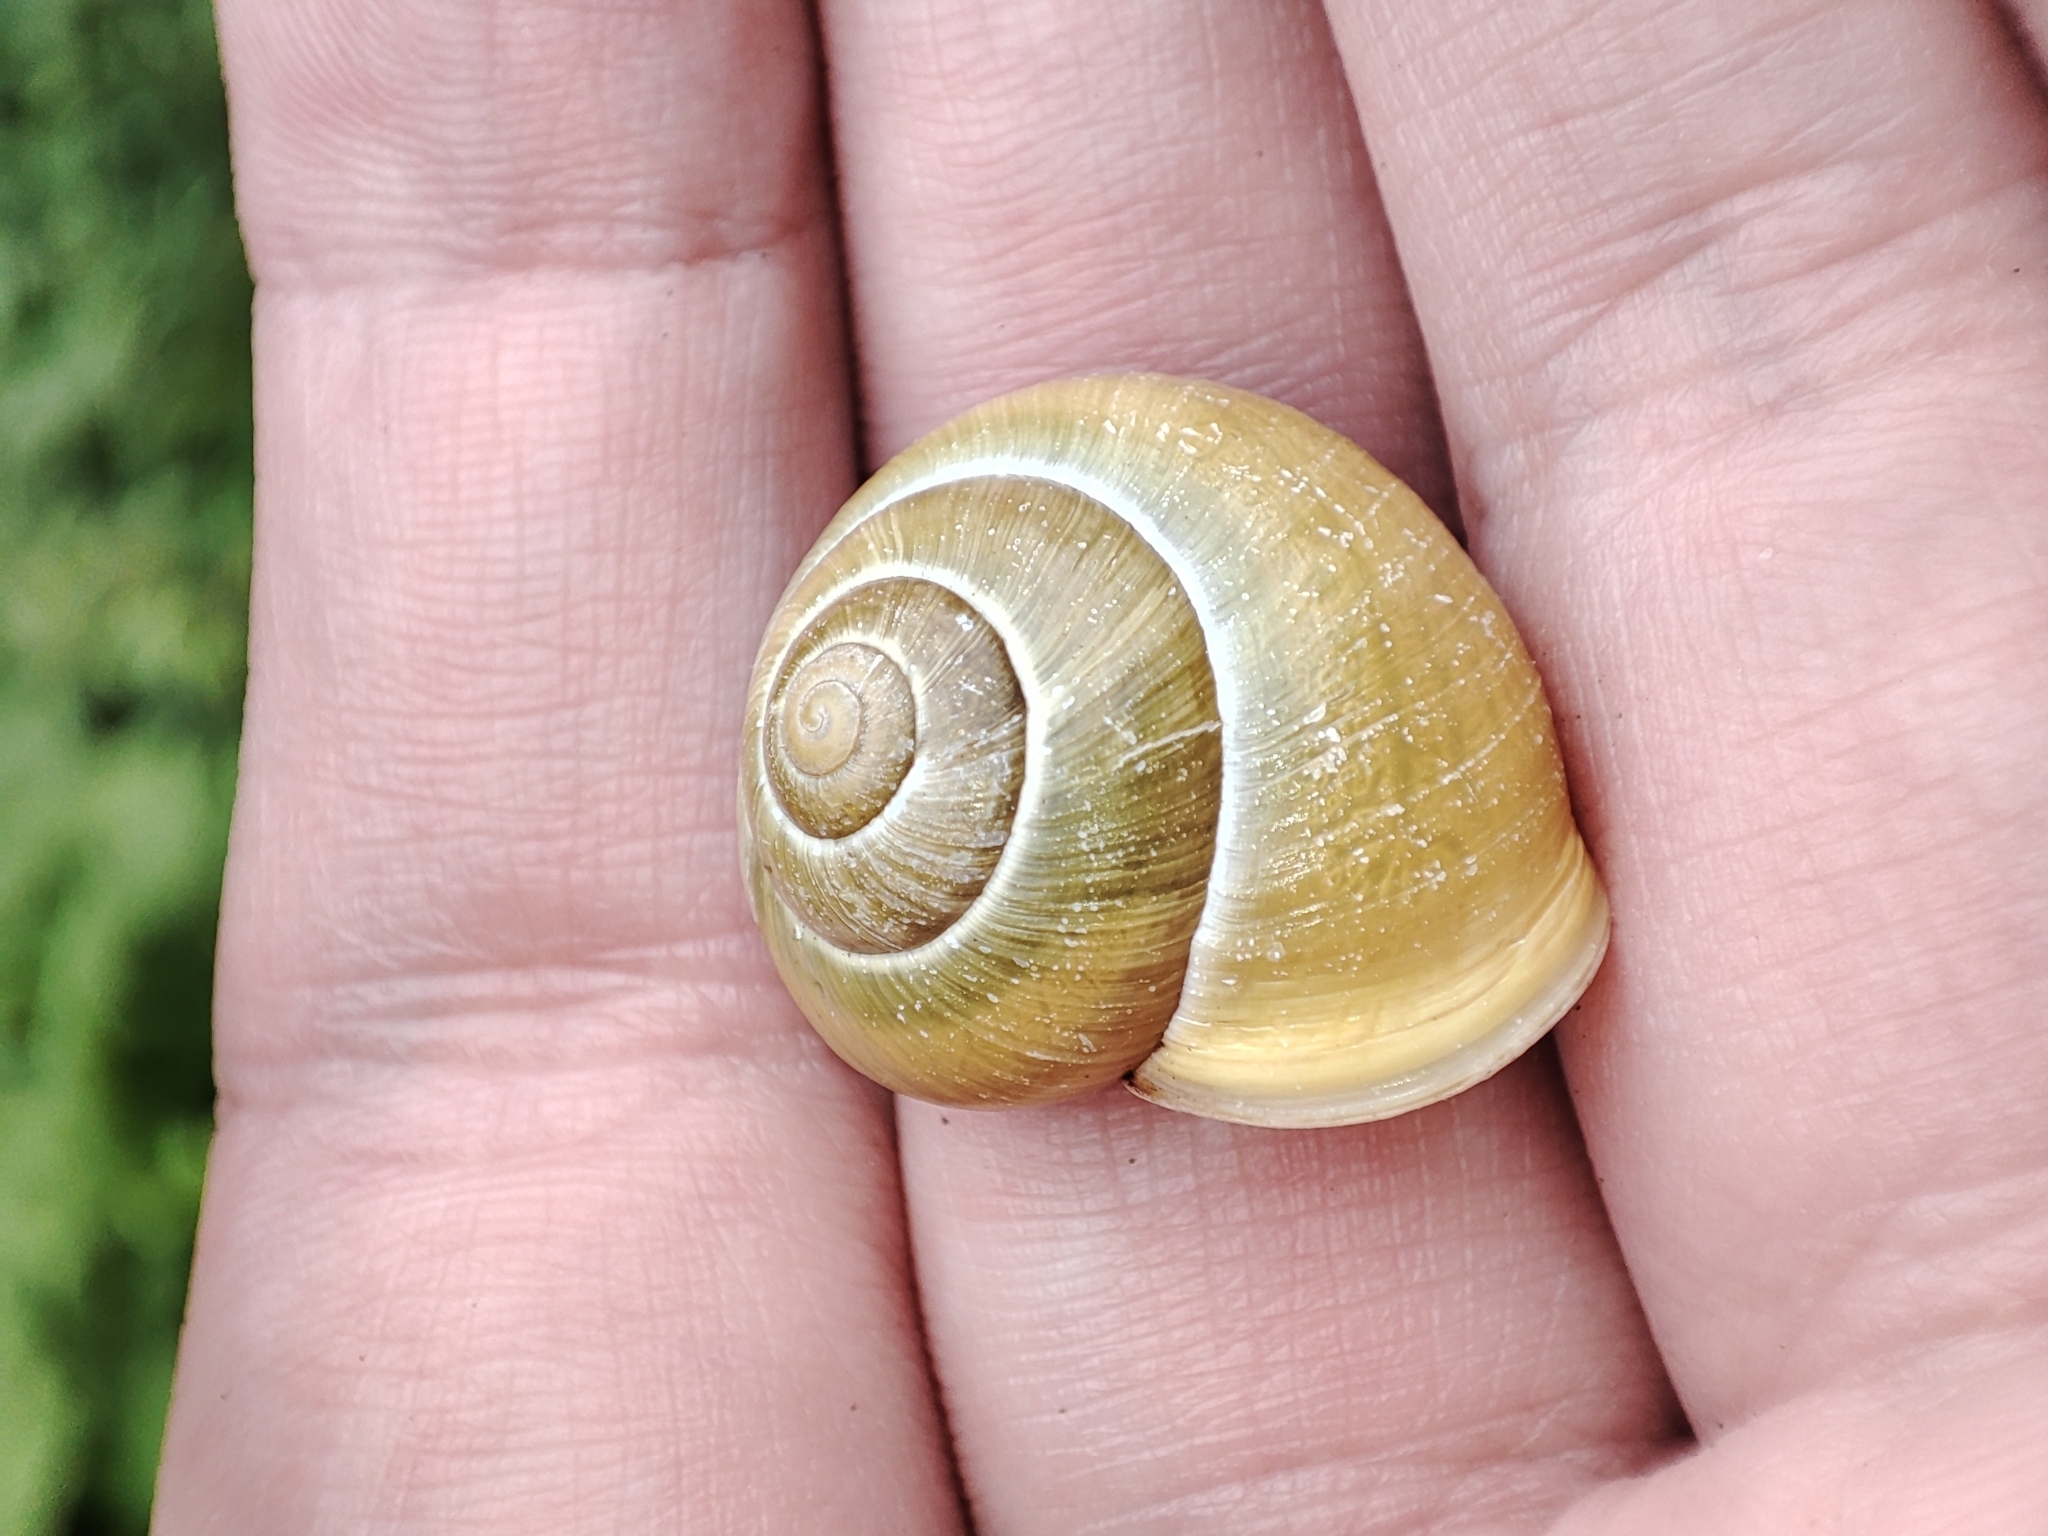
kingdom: Animalia
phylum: Mollusca
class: Gastropoda
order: Stylommatophora
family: Helicidae
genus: Cepaea
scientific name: Cepaea hortensis
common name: White-lip gardensnail
